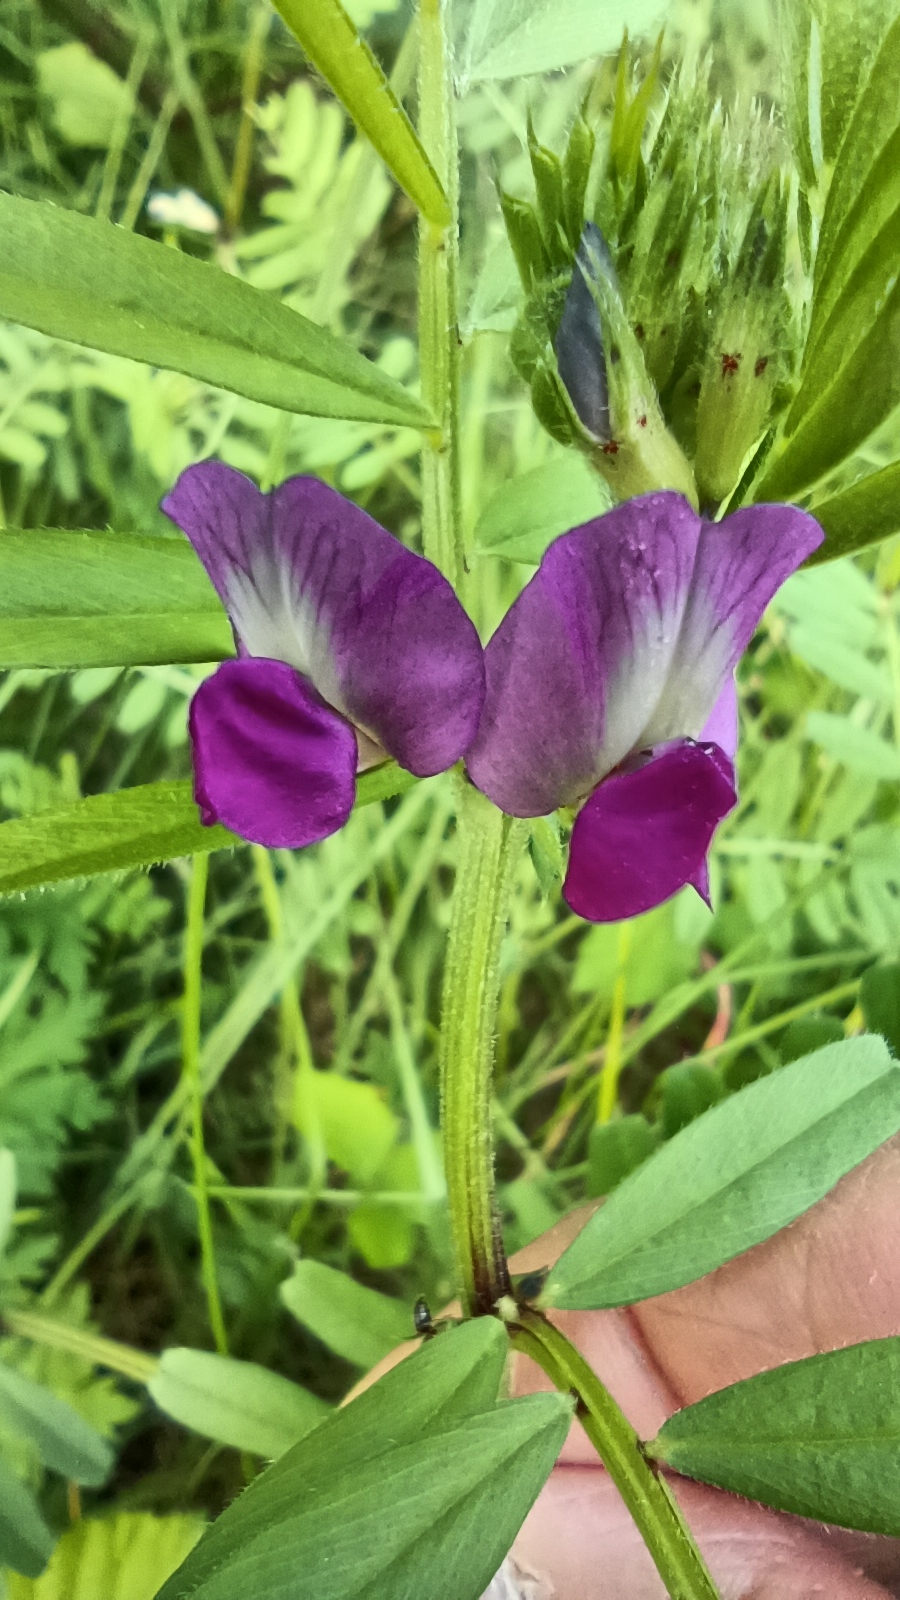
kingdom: Plantae
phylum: Tracheophyta
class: Magnoliopsida
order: Fabales
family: Fabaceae
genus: Vicia
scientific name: Vicia sativa
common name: Garden vetch
